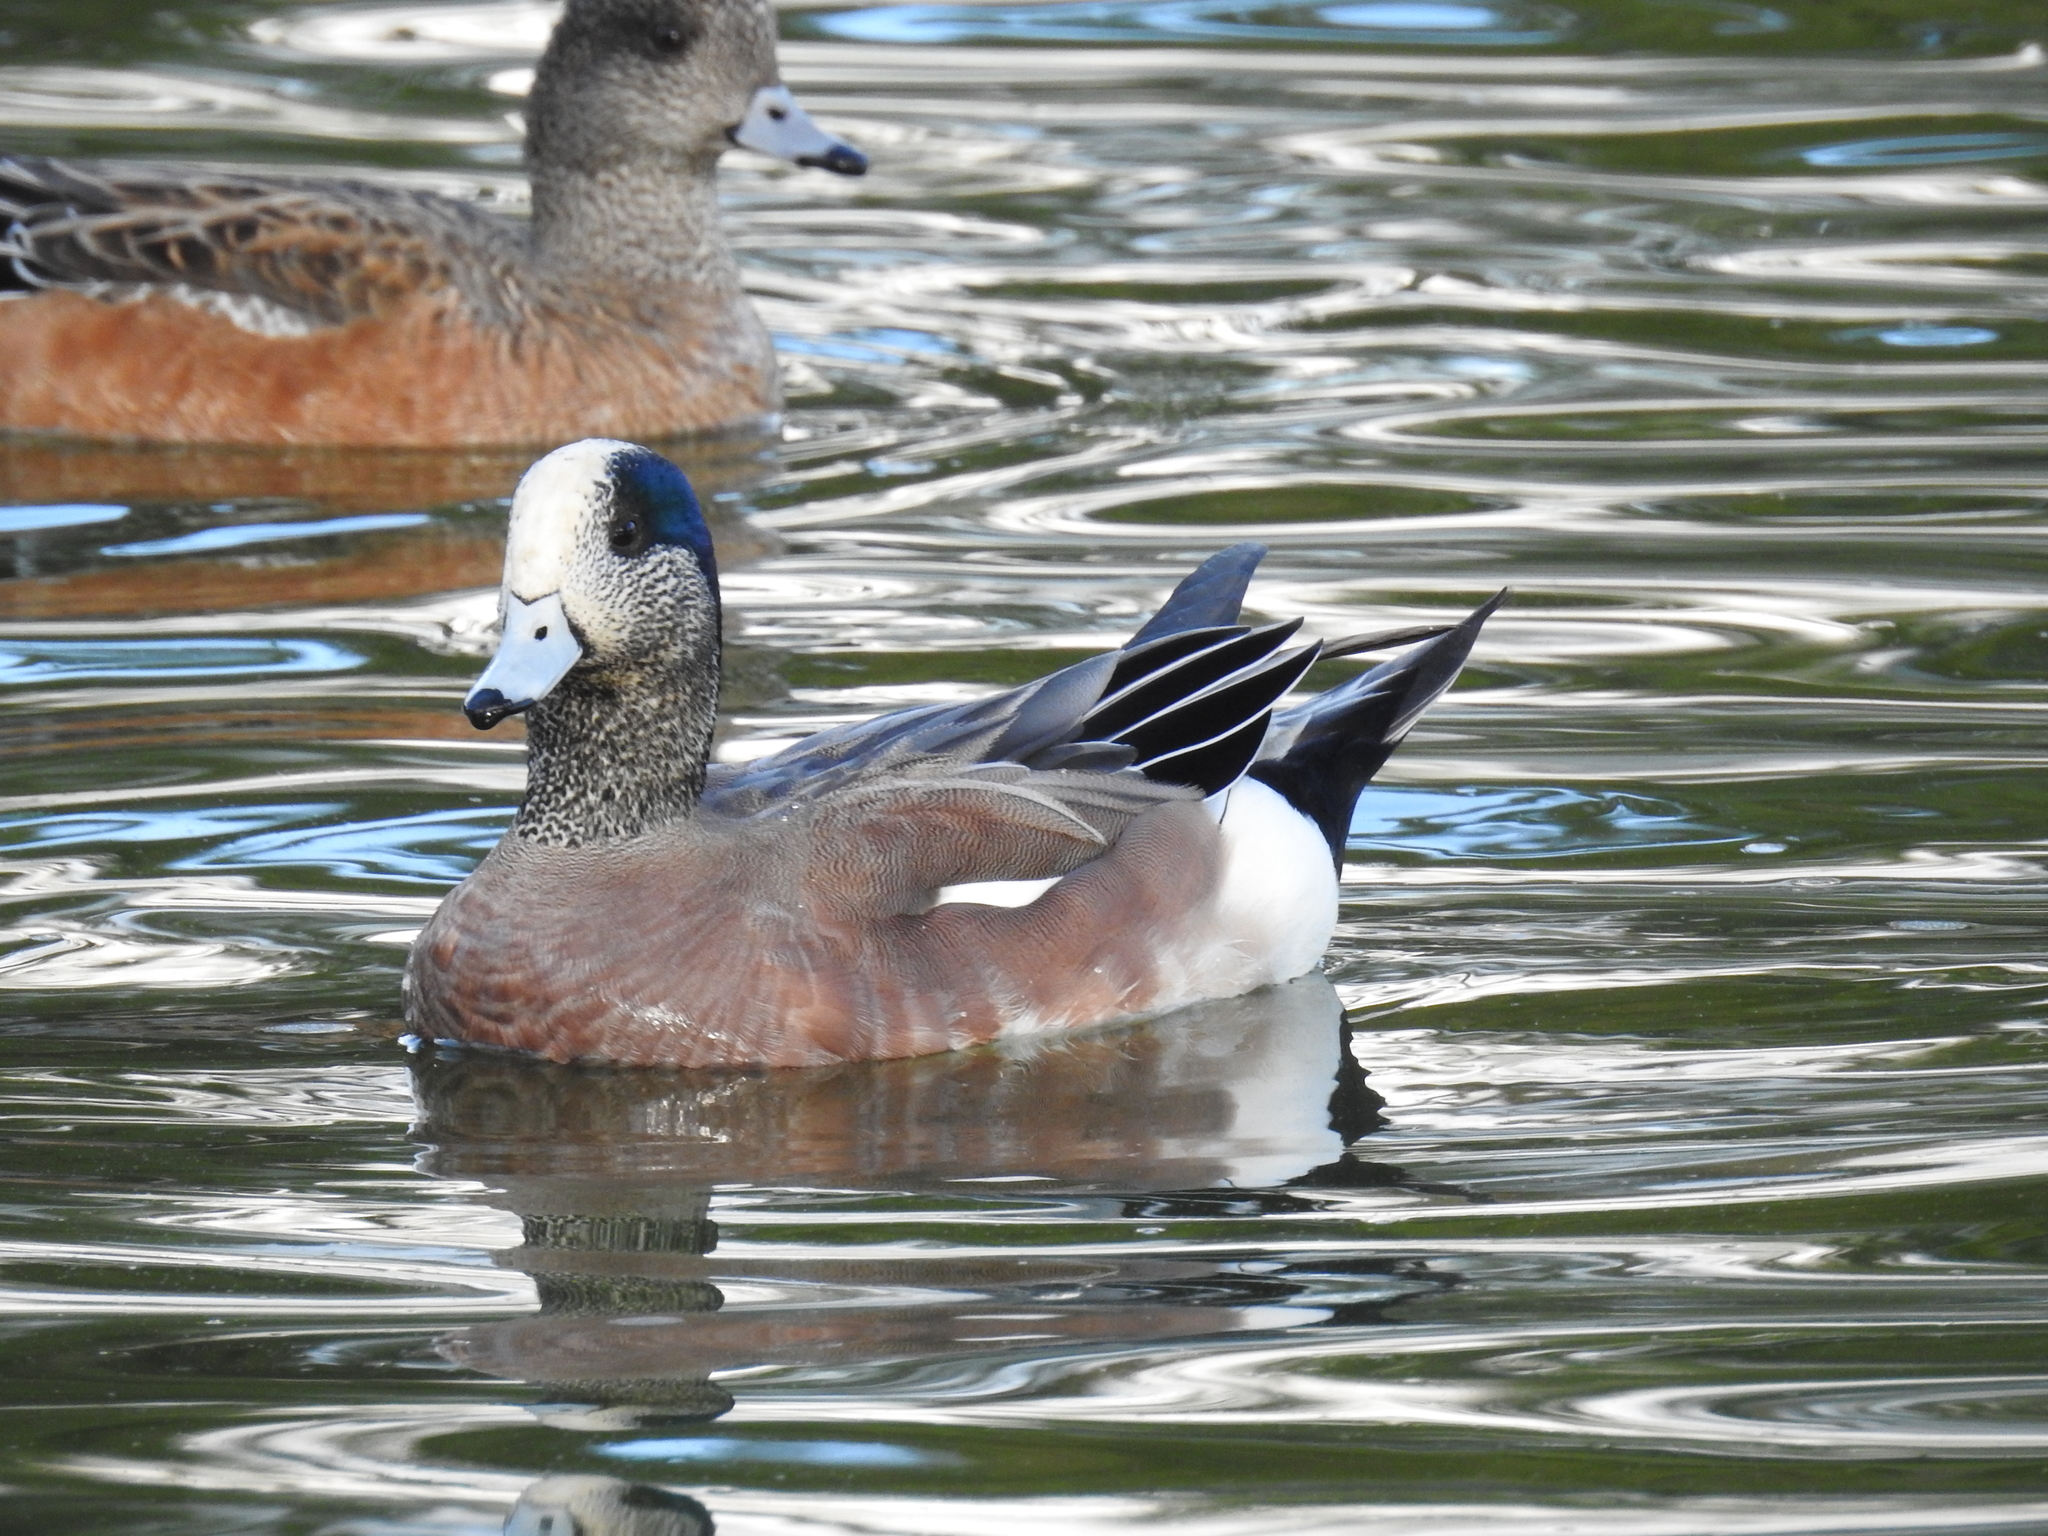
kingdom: Animalia
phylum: Chordata
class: Aves
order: Anseriformes
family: Anatidae
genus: Mareca
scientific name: Mareca americana
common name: American wigeon
